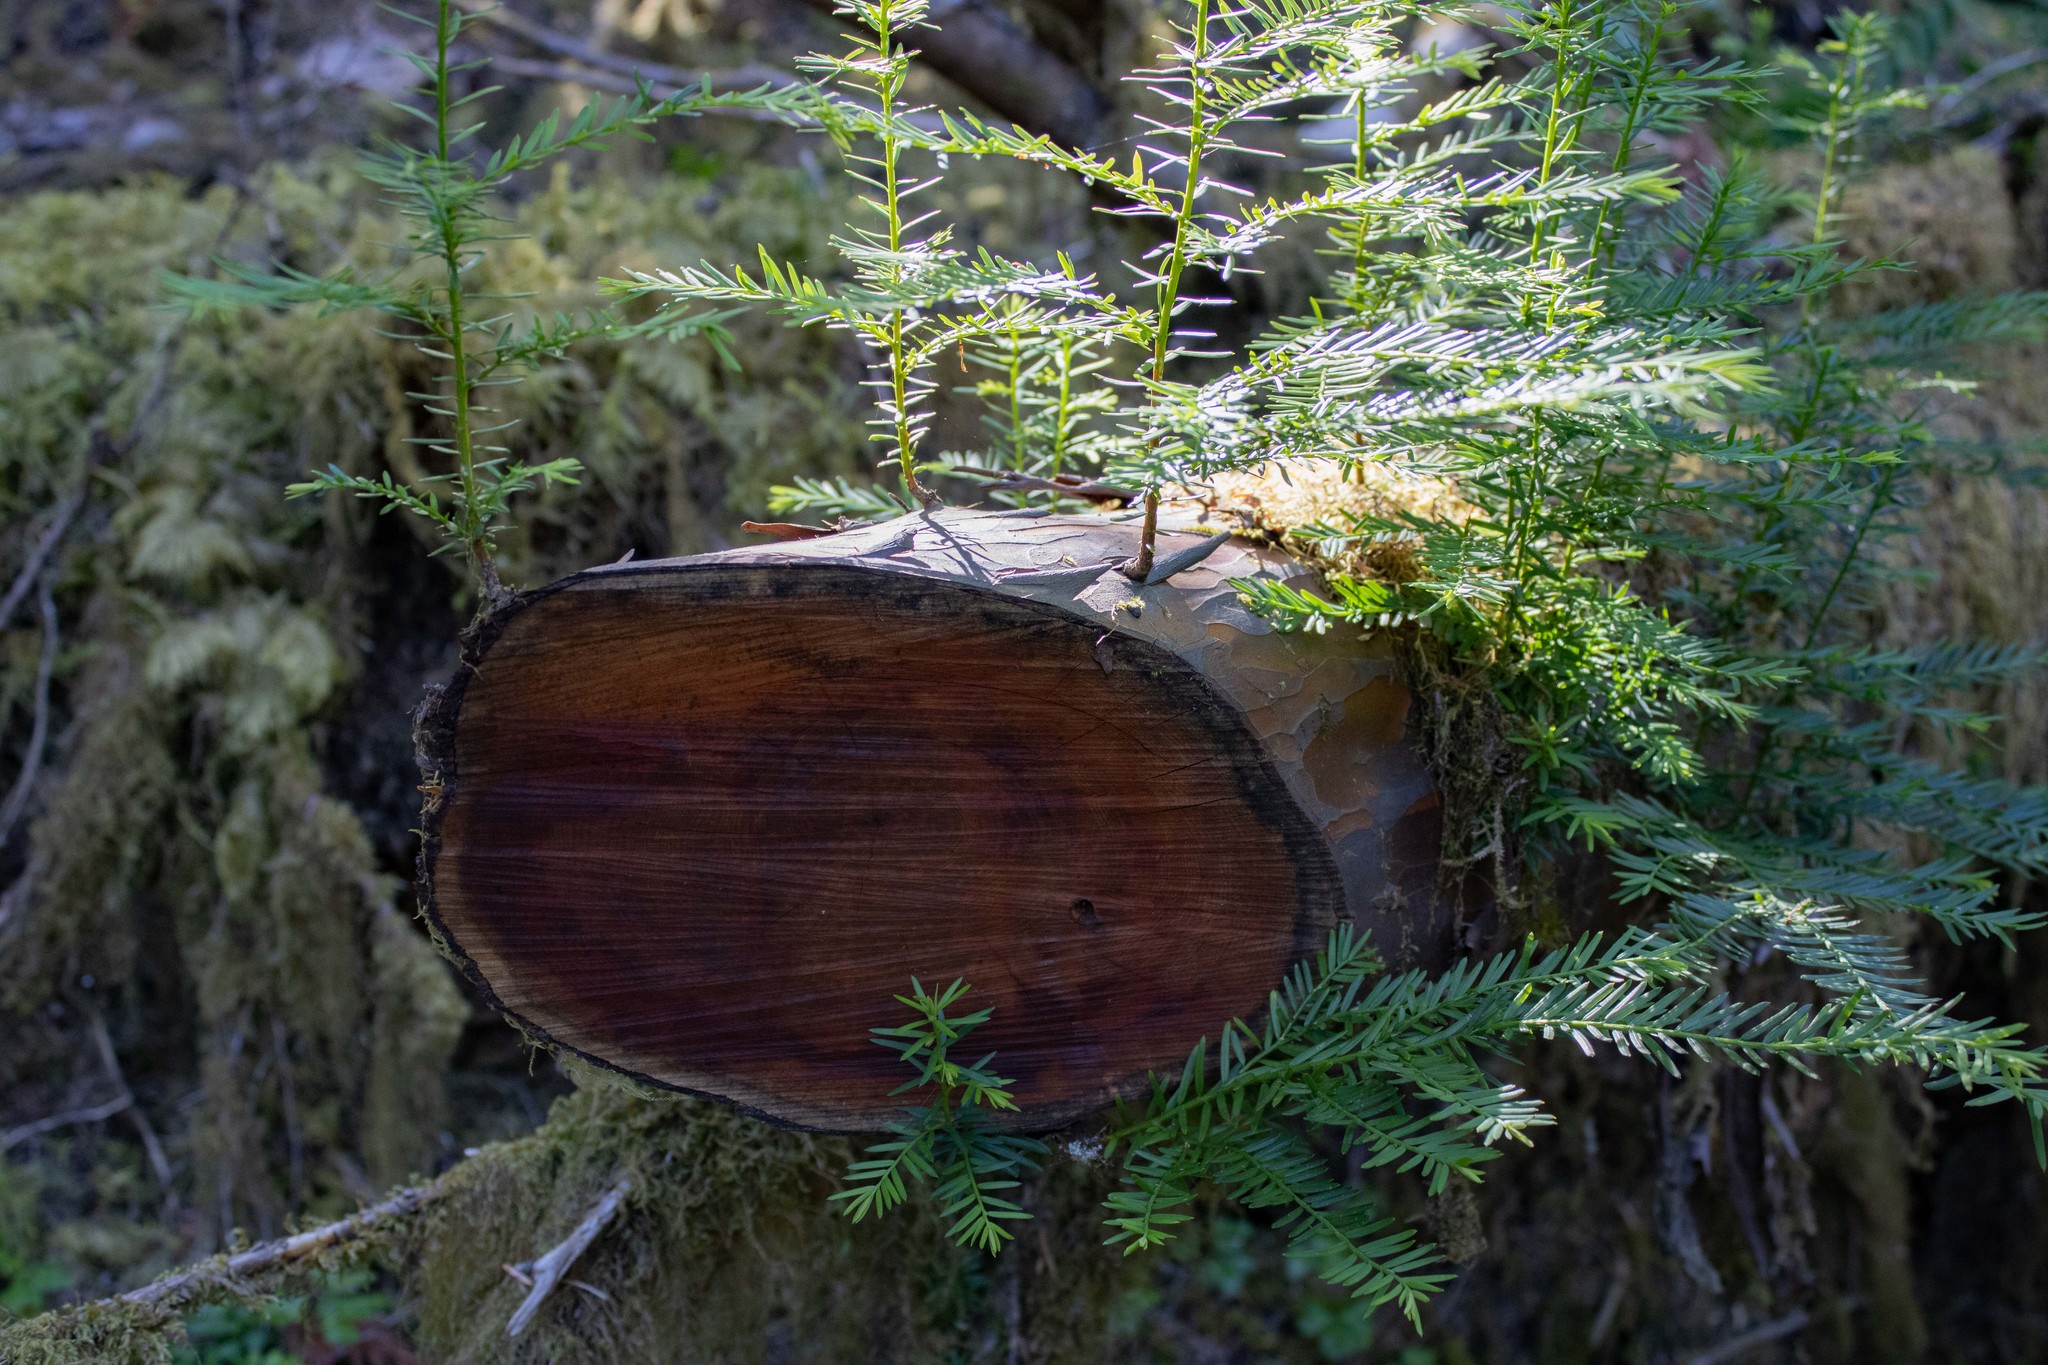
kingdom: Plantae
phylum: Tracheophyta
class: Pinopsida
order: Pinales
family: Taxaceae
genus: Taxus
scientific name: Taxus brevifolia
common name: Pacific yew
